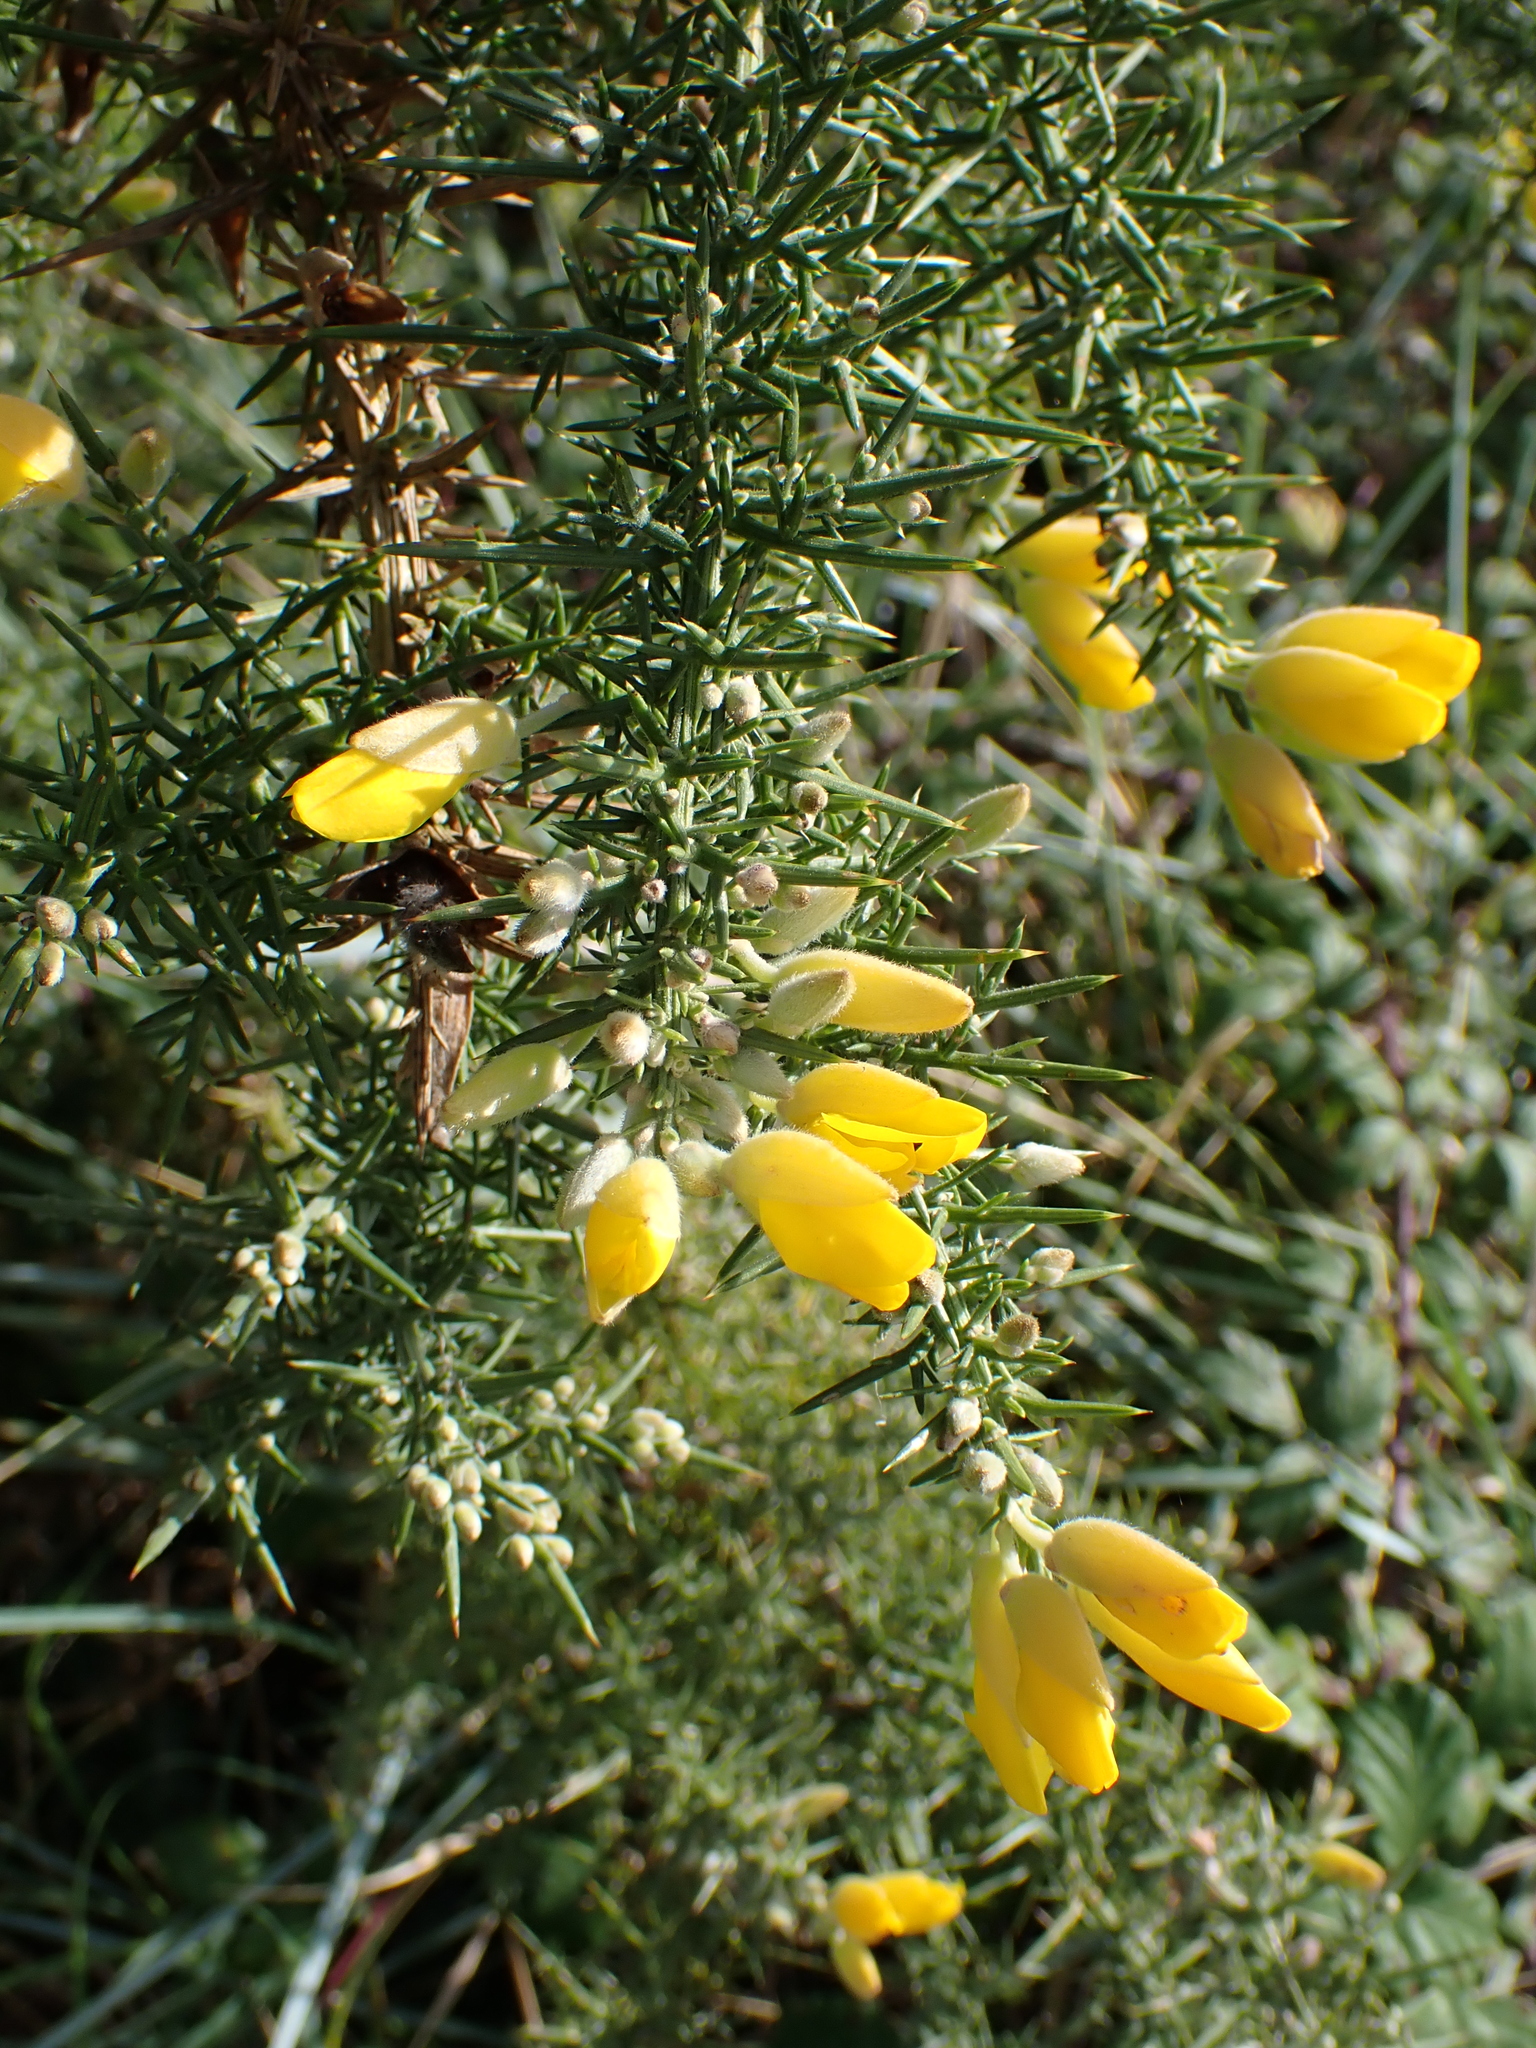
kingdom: Plantae
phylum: Tracheophyta
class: Magnoliopsida
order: Fabales
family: Fabaceae
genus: Ulex
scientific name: Ulex europaeus
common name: Common gorse
